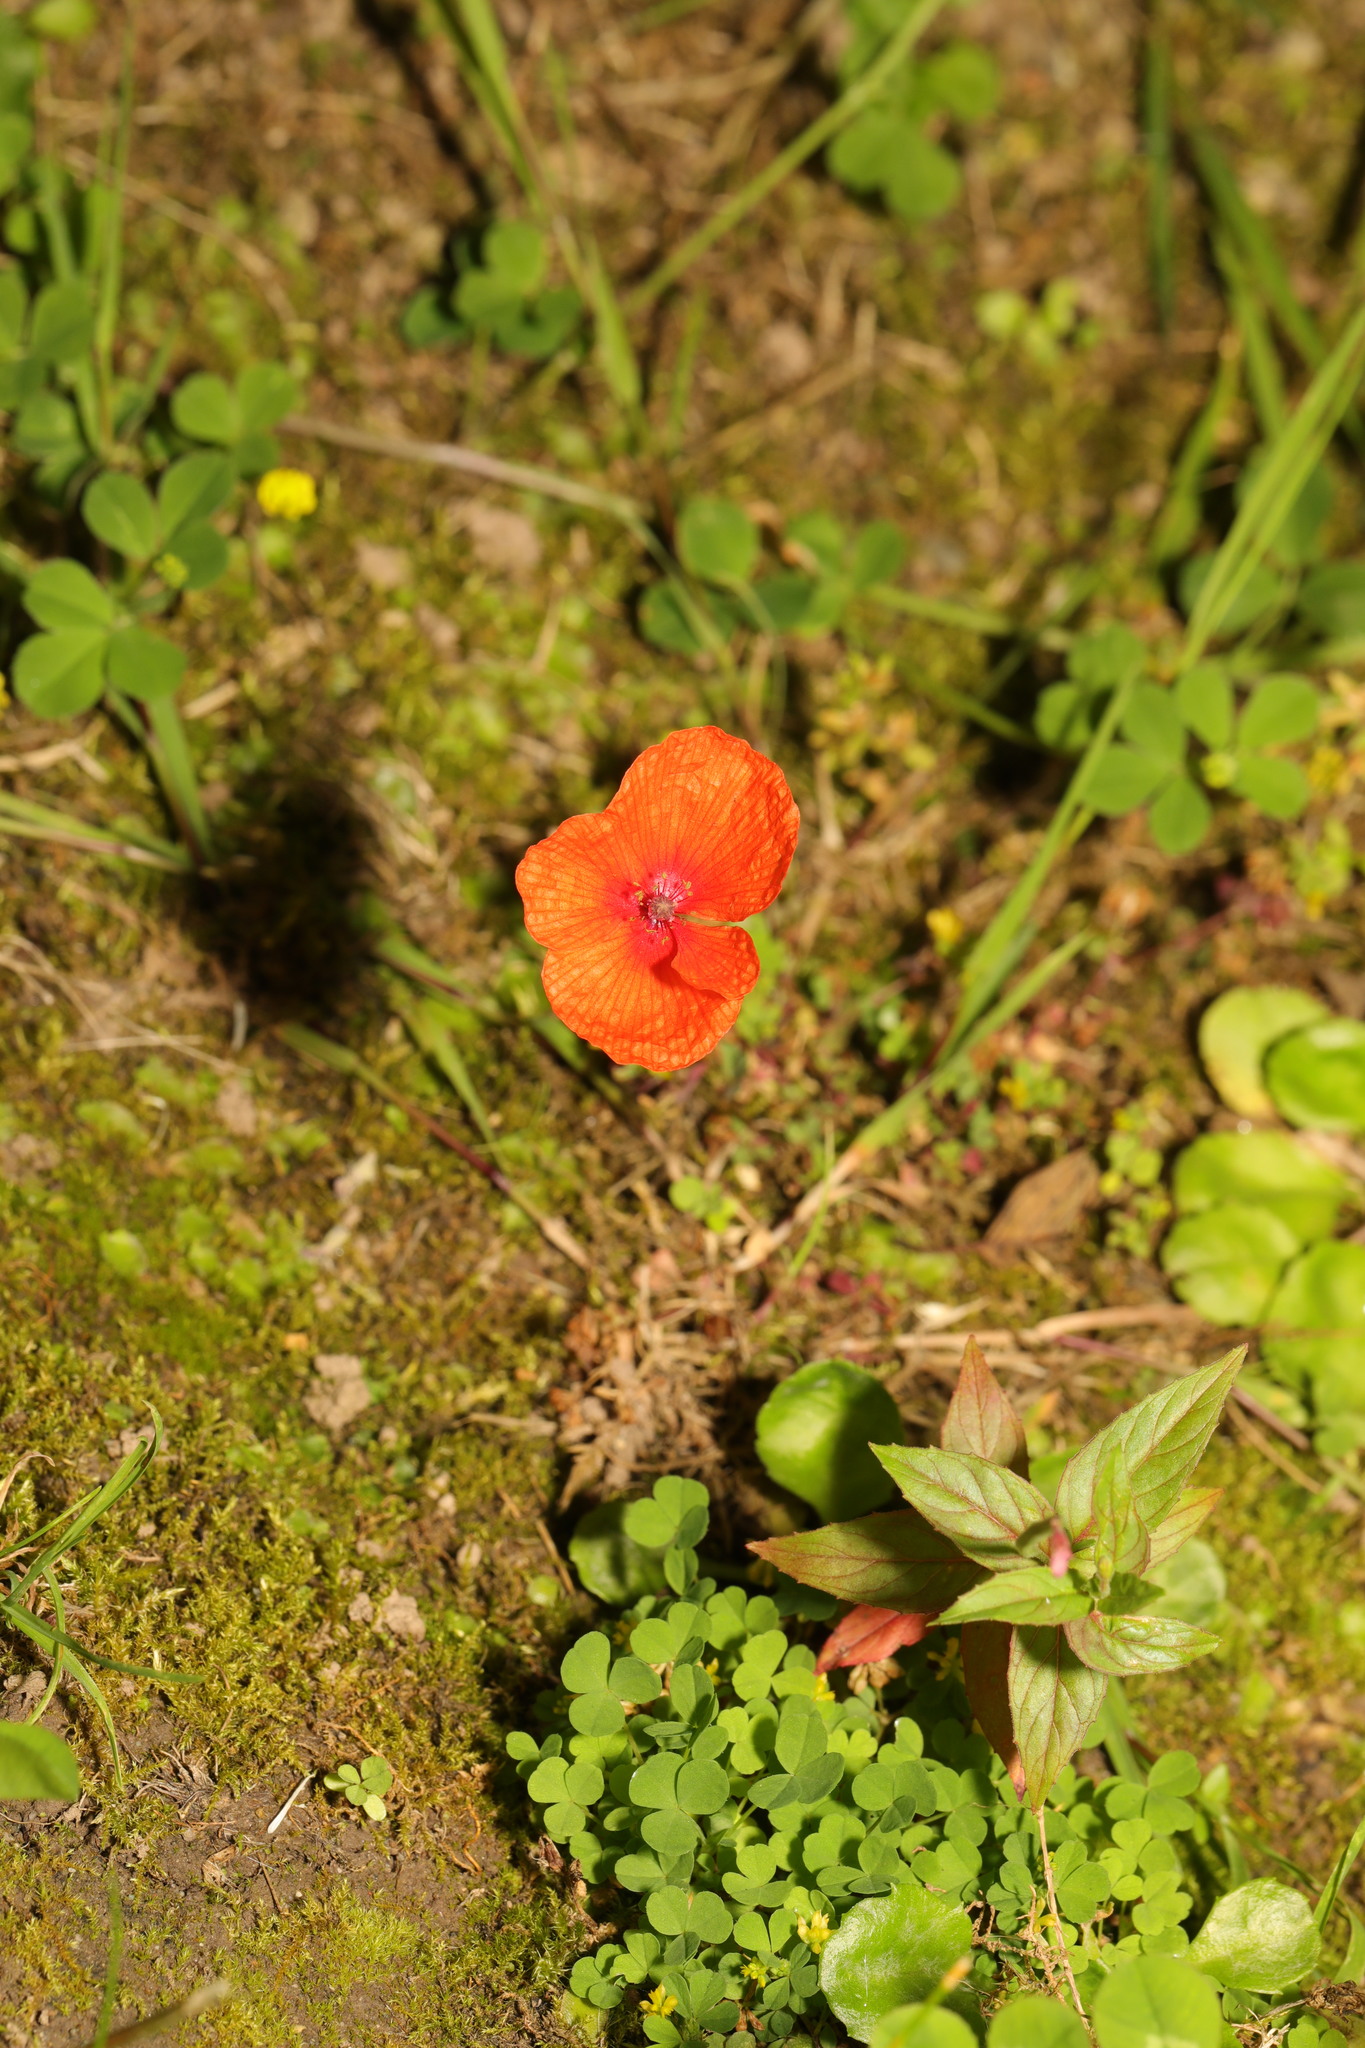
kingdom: Plantae
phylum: Tracheophyta
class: Magnoliopsida
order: Ranunculales
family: Papaveraceae
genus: Papaver
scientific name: Papaver rhoeas
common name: Corn poppy
